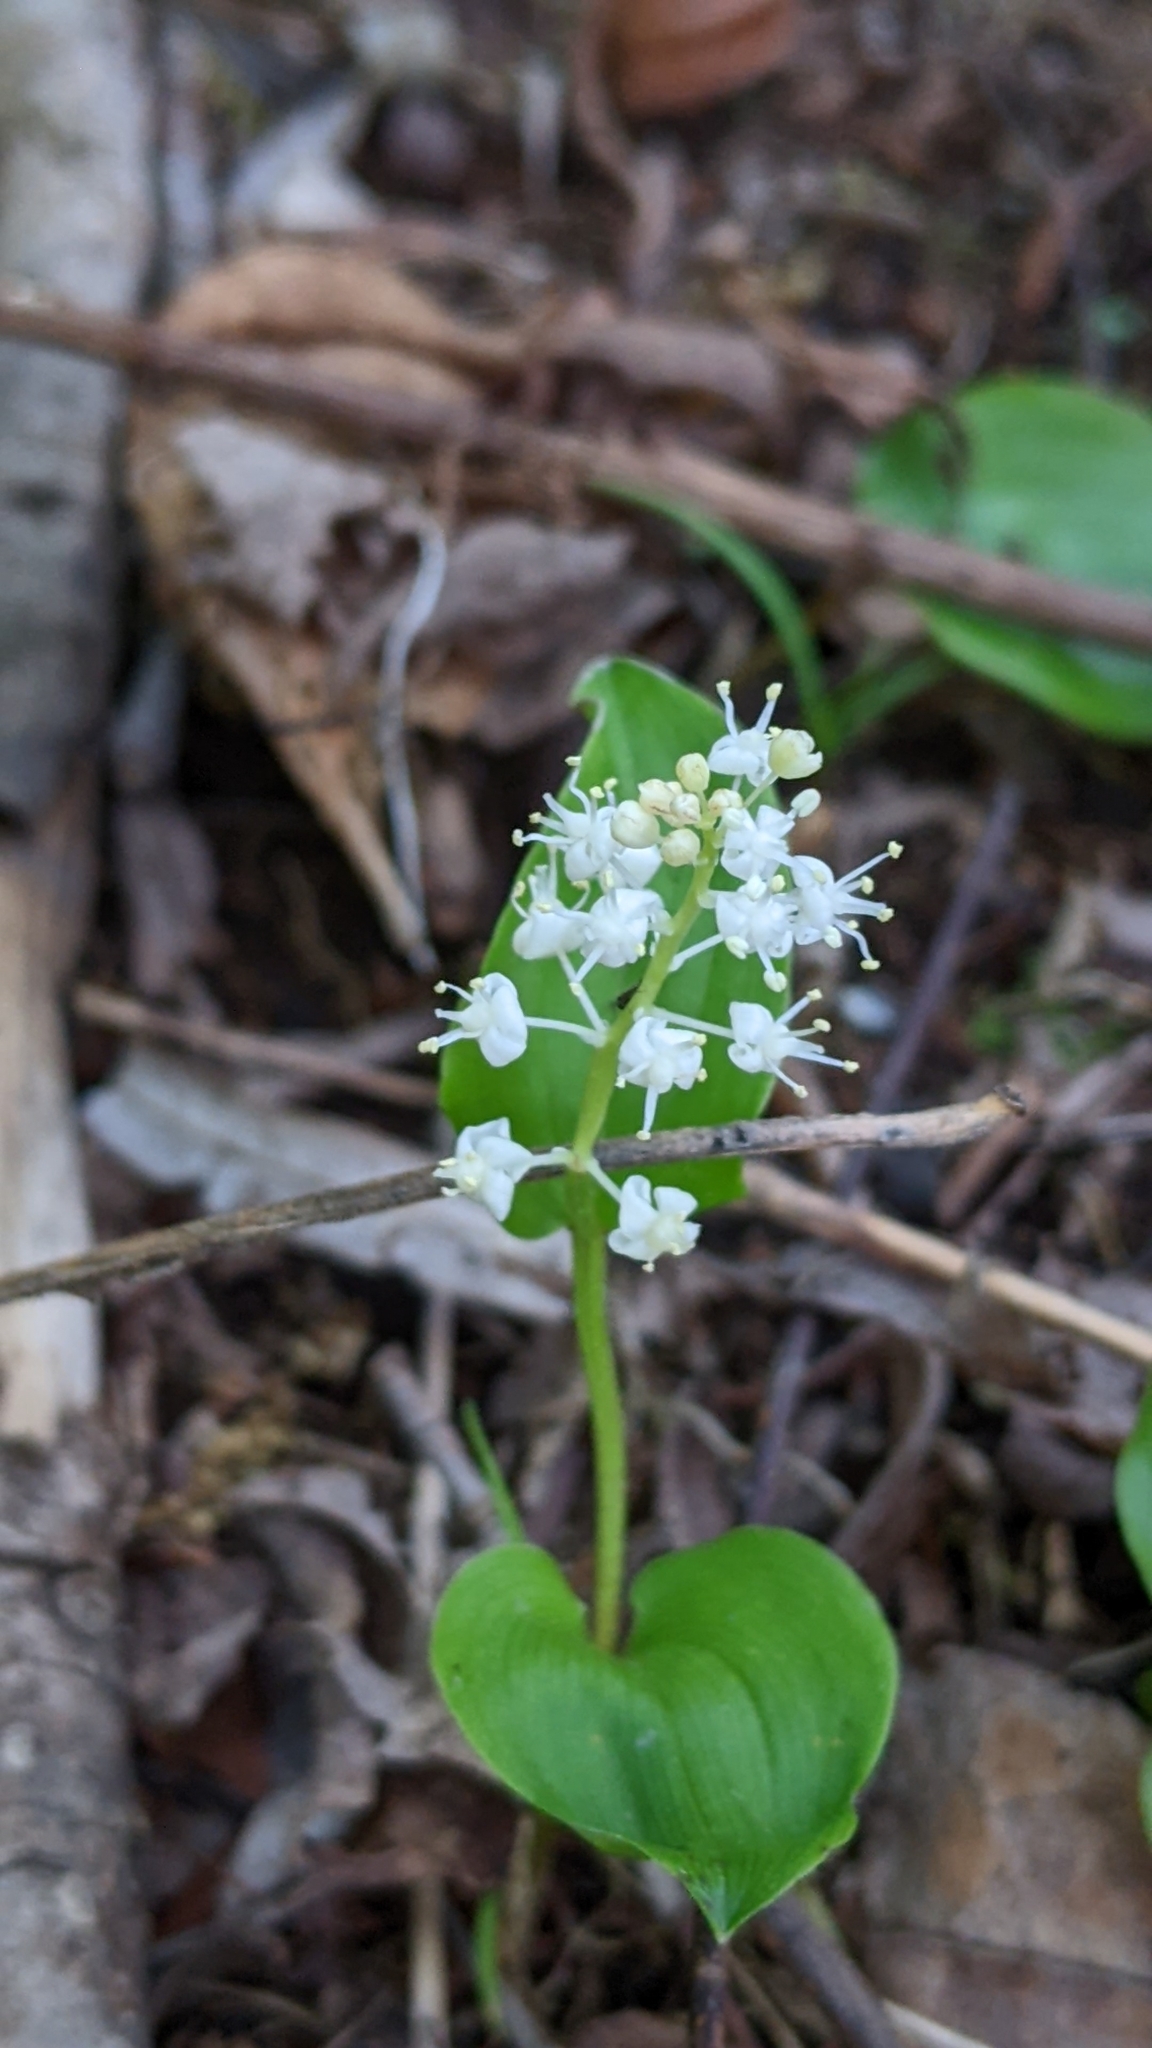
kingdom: Plantae
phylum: Tracheophyta
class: Liliopsida
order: Asparagales
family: Asparagaceae
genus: Maianthemum
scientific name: Maianthemum canadense
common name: False lily-of-the-valley
